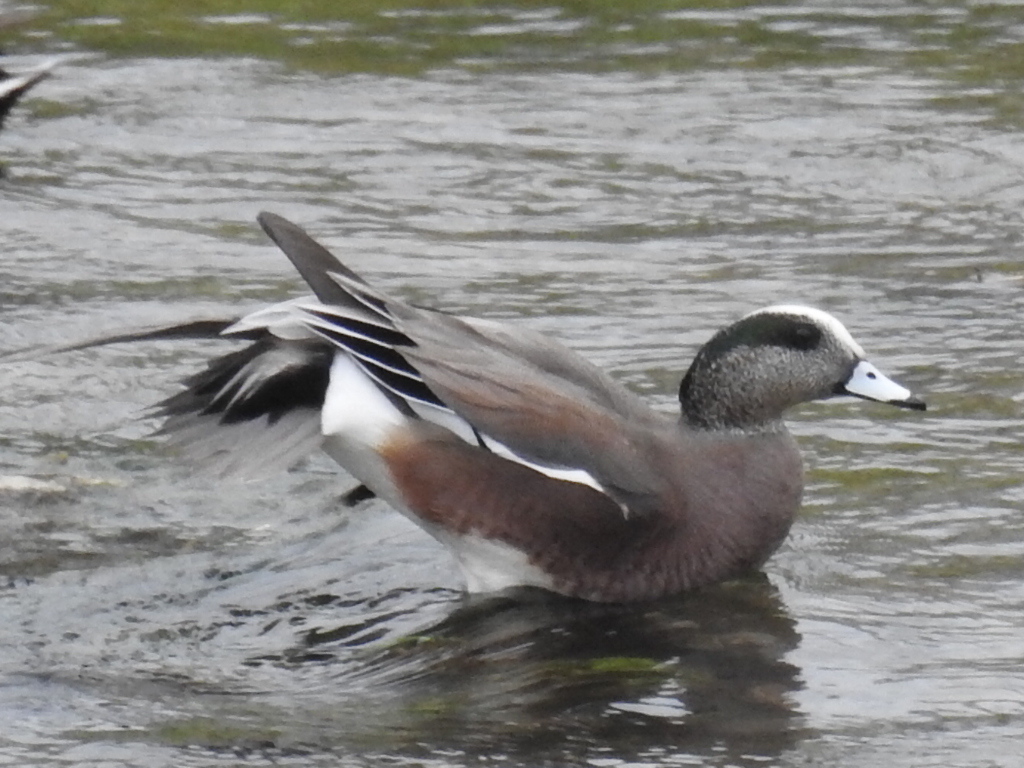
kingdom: Animalia
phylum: Chordata
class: Aves
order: Anseriformes
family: Anatidae
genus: Mareca
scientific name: Mareca americana
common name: American wigeon
